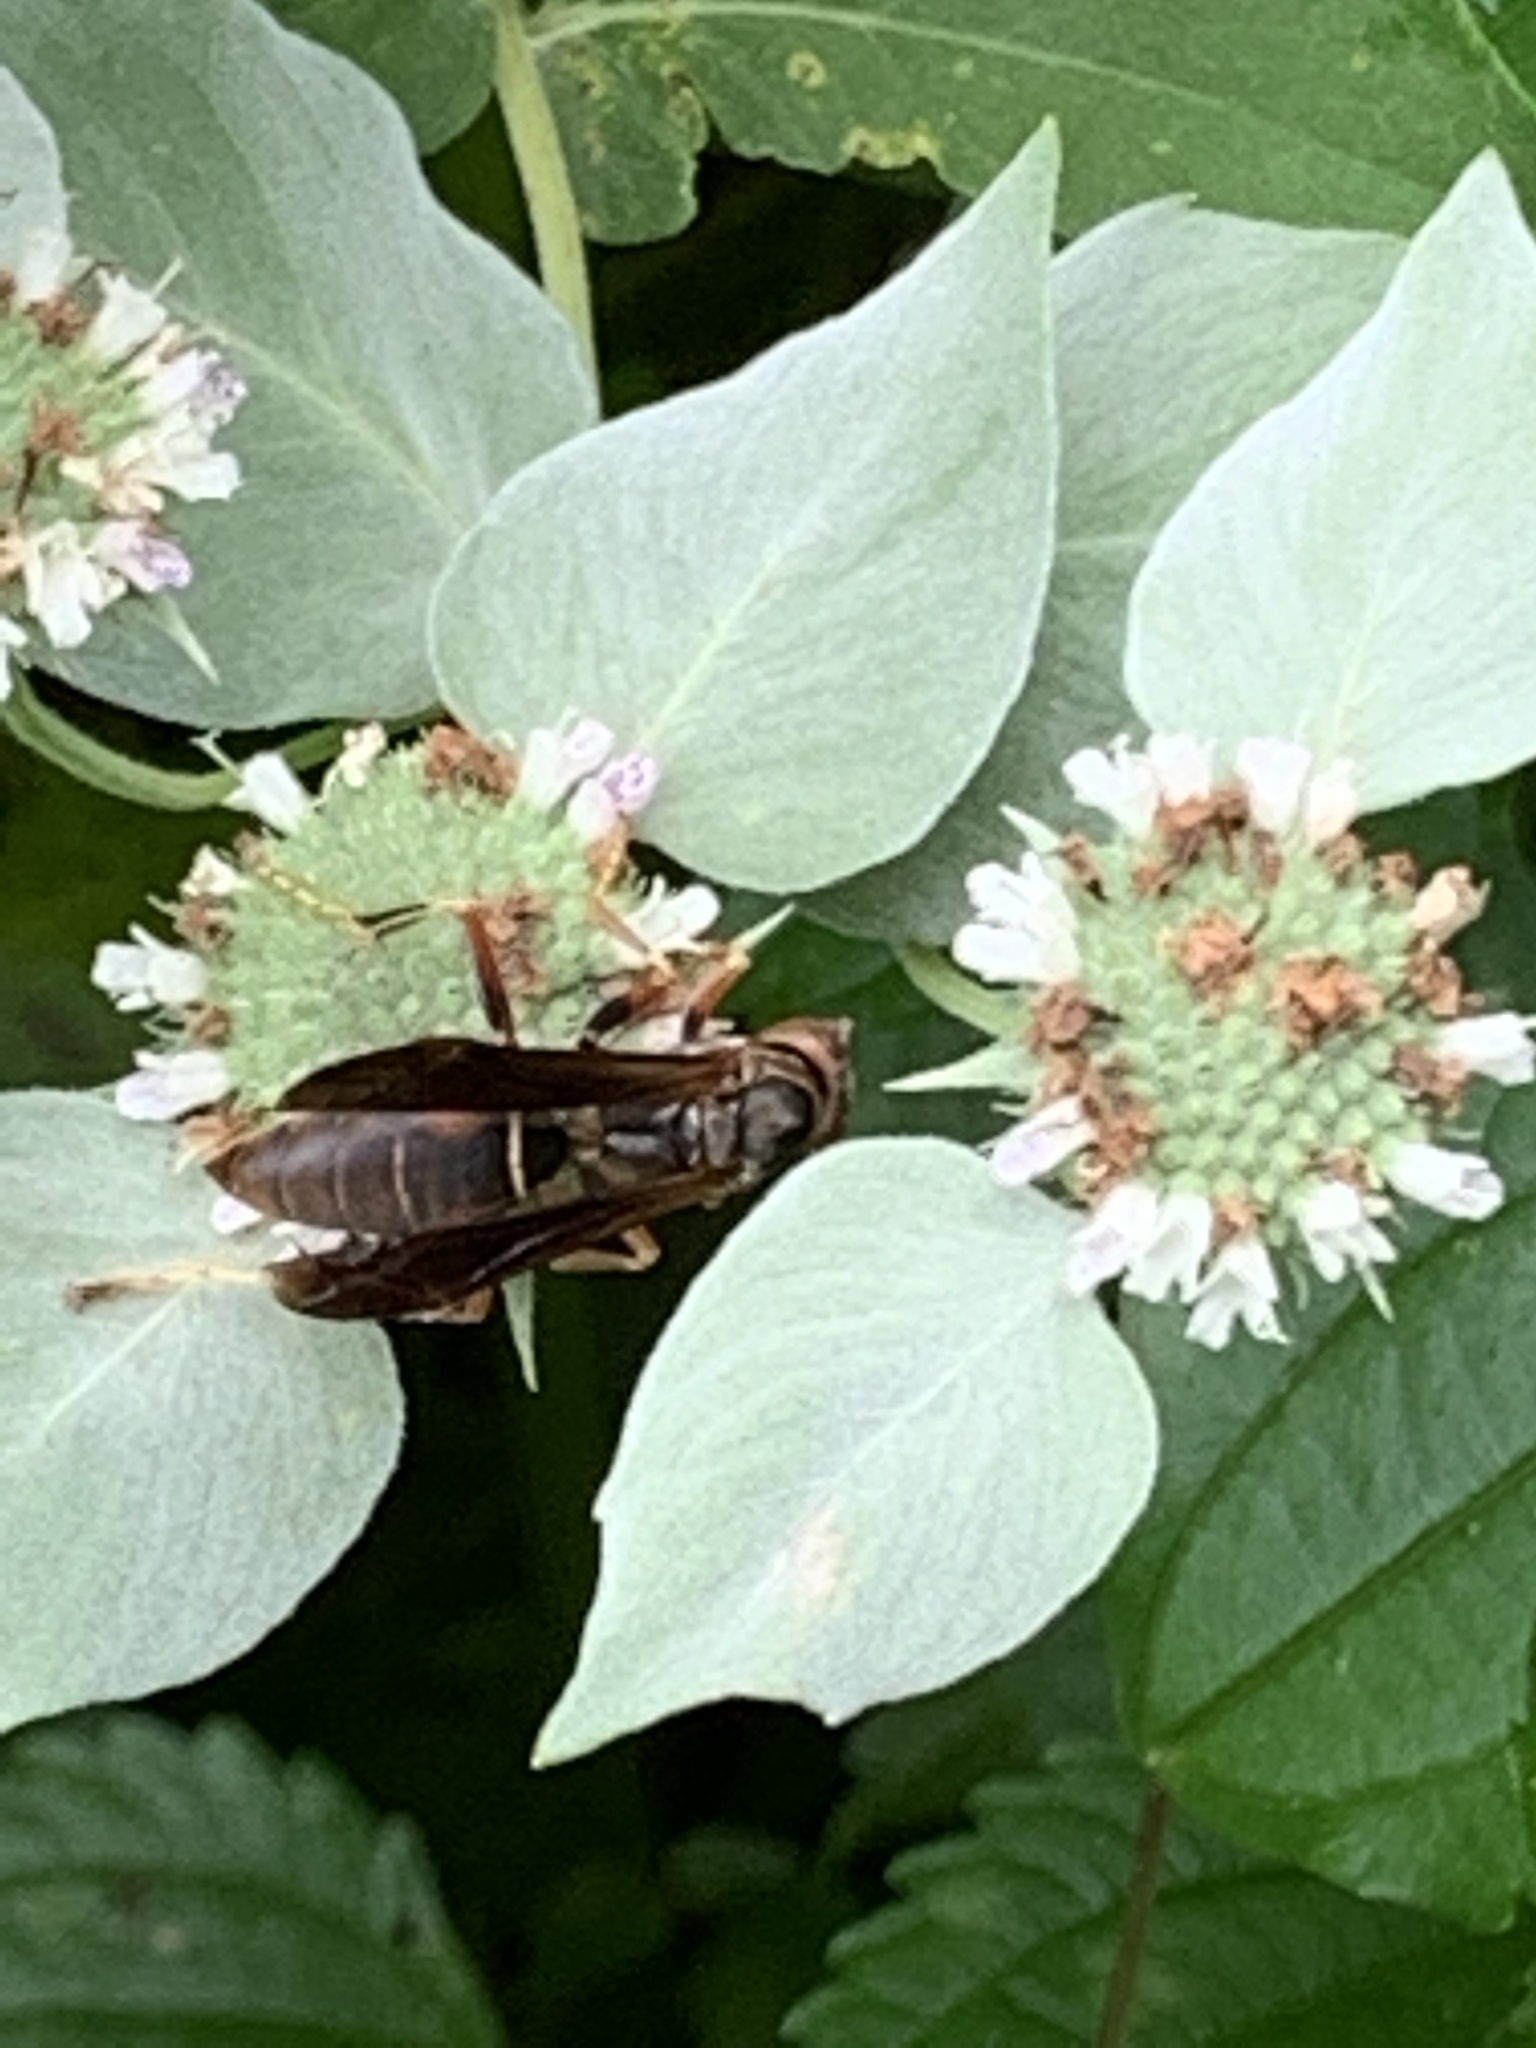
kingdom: Animalia
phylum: Arthropoda
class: Insecta
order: Hymenoptera
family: Eumenidae
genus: Polistes
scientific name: Polistes fuscatus
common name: Dark paper wasp
